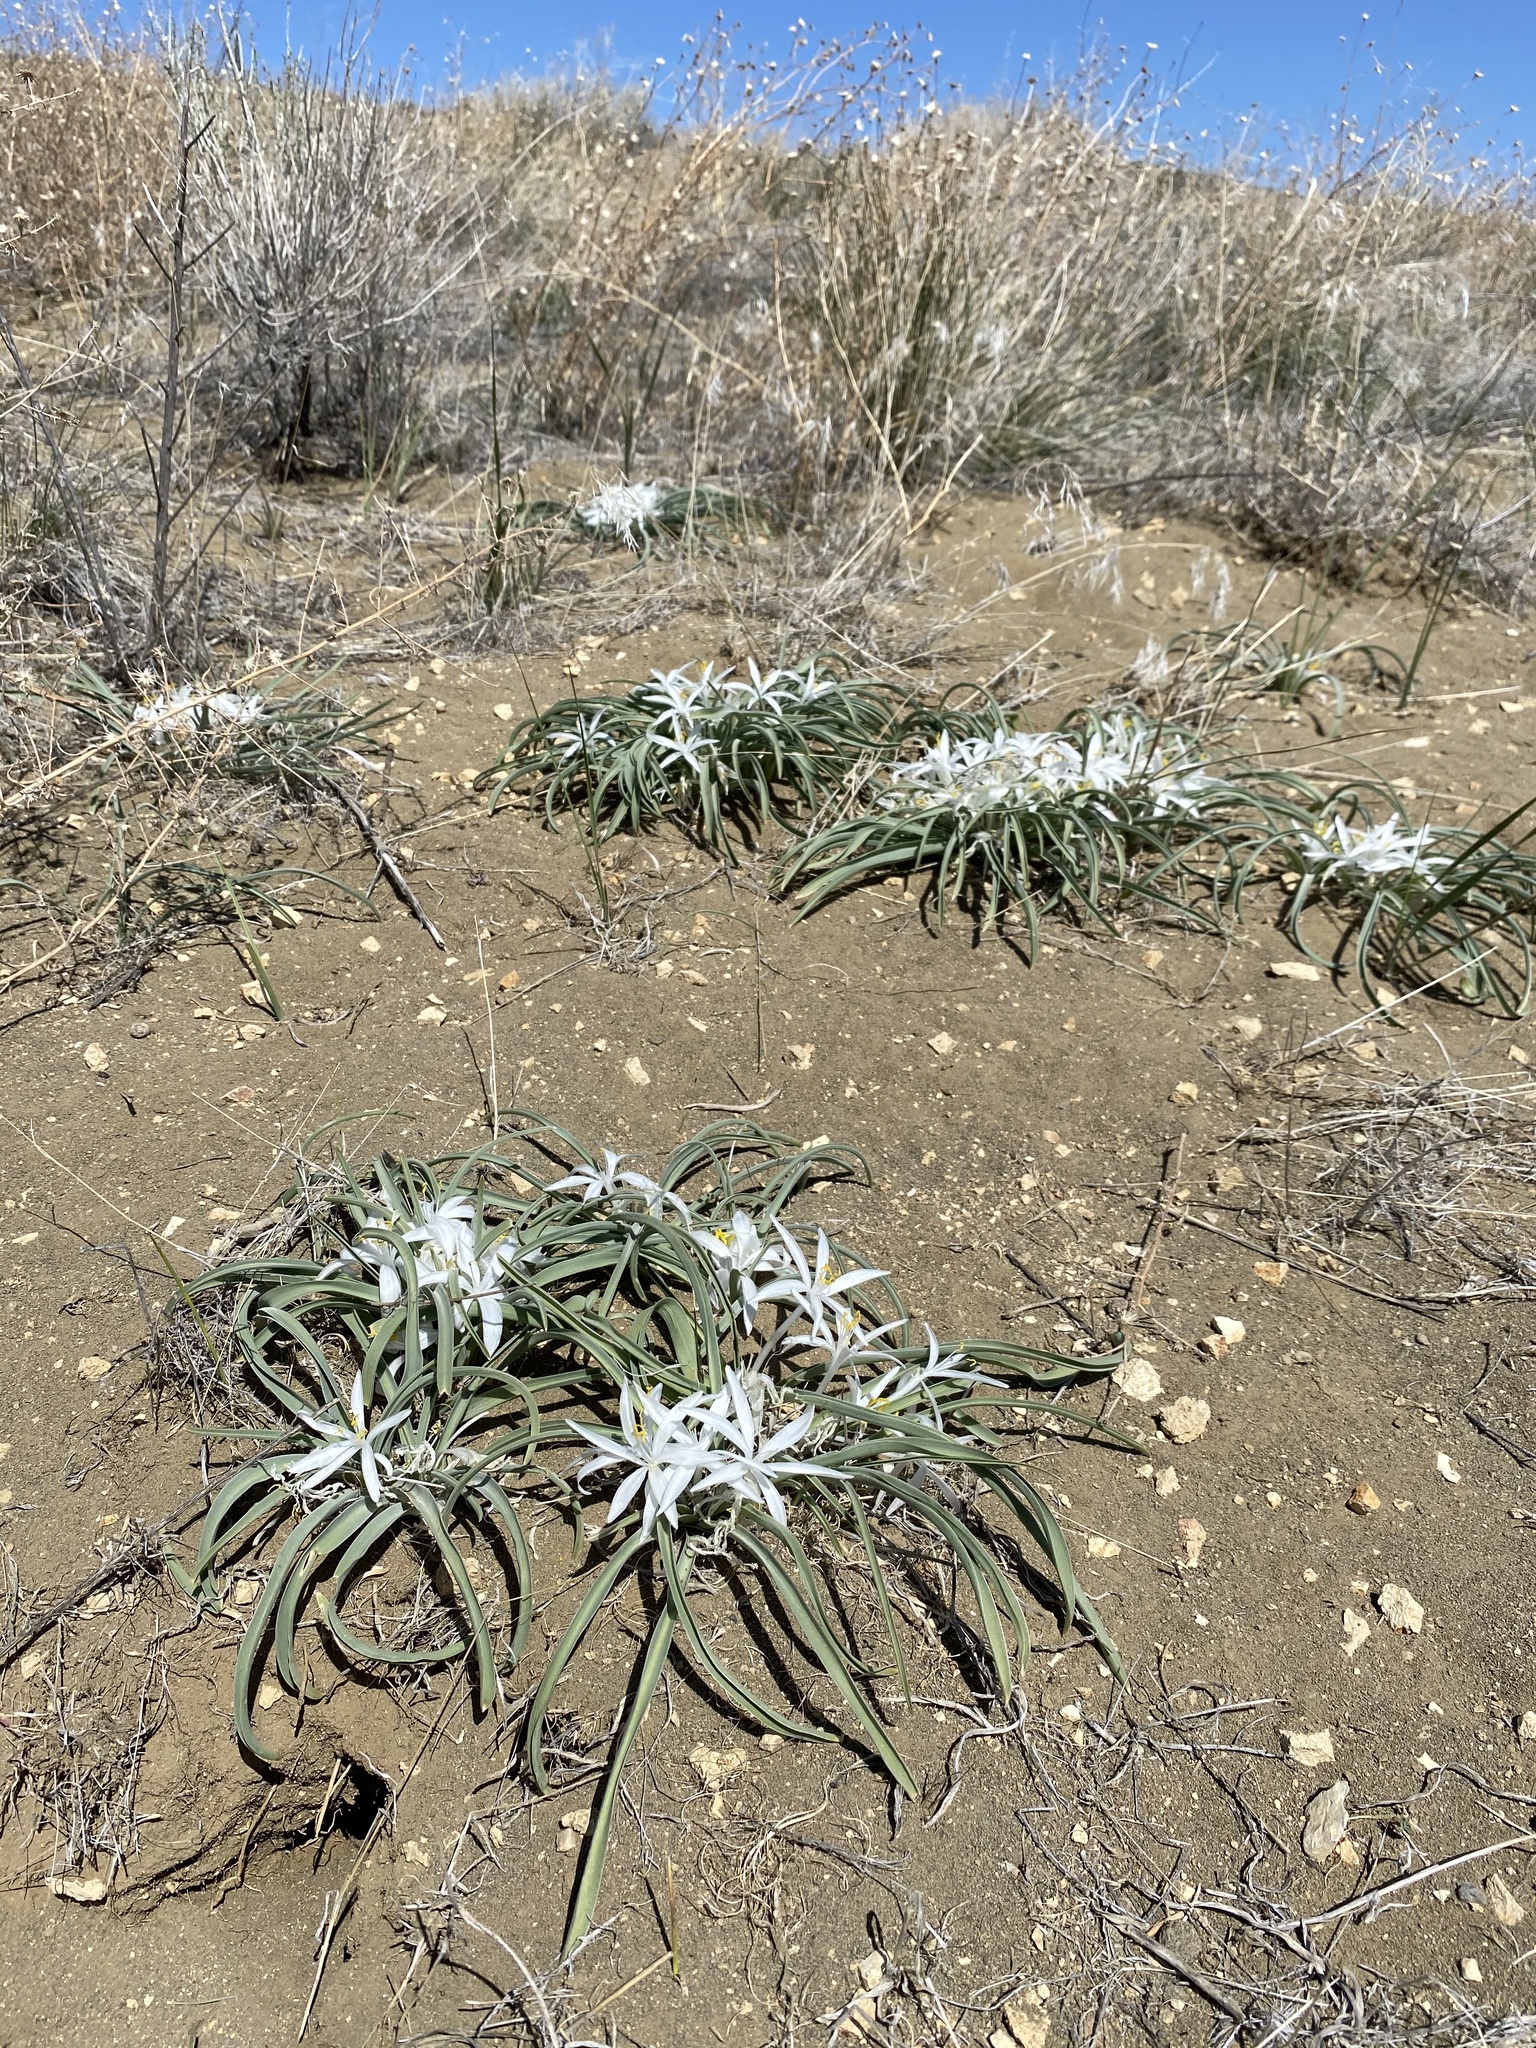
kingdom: Plantae
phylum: Tracheophyta
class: Liliopsida
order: Asparagales
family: Asparagaceae
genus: Leucocrinum
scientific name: Leucocrinum montanum
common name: Mountain-lily
